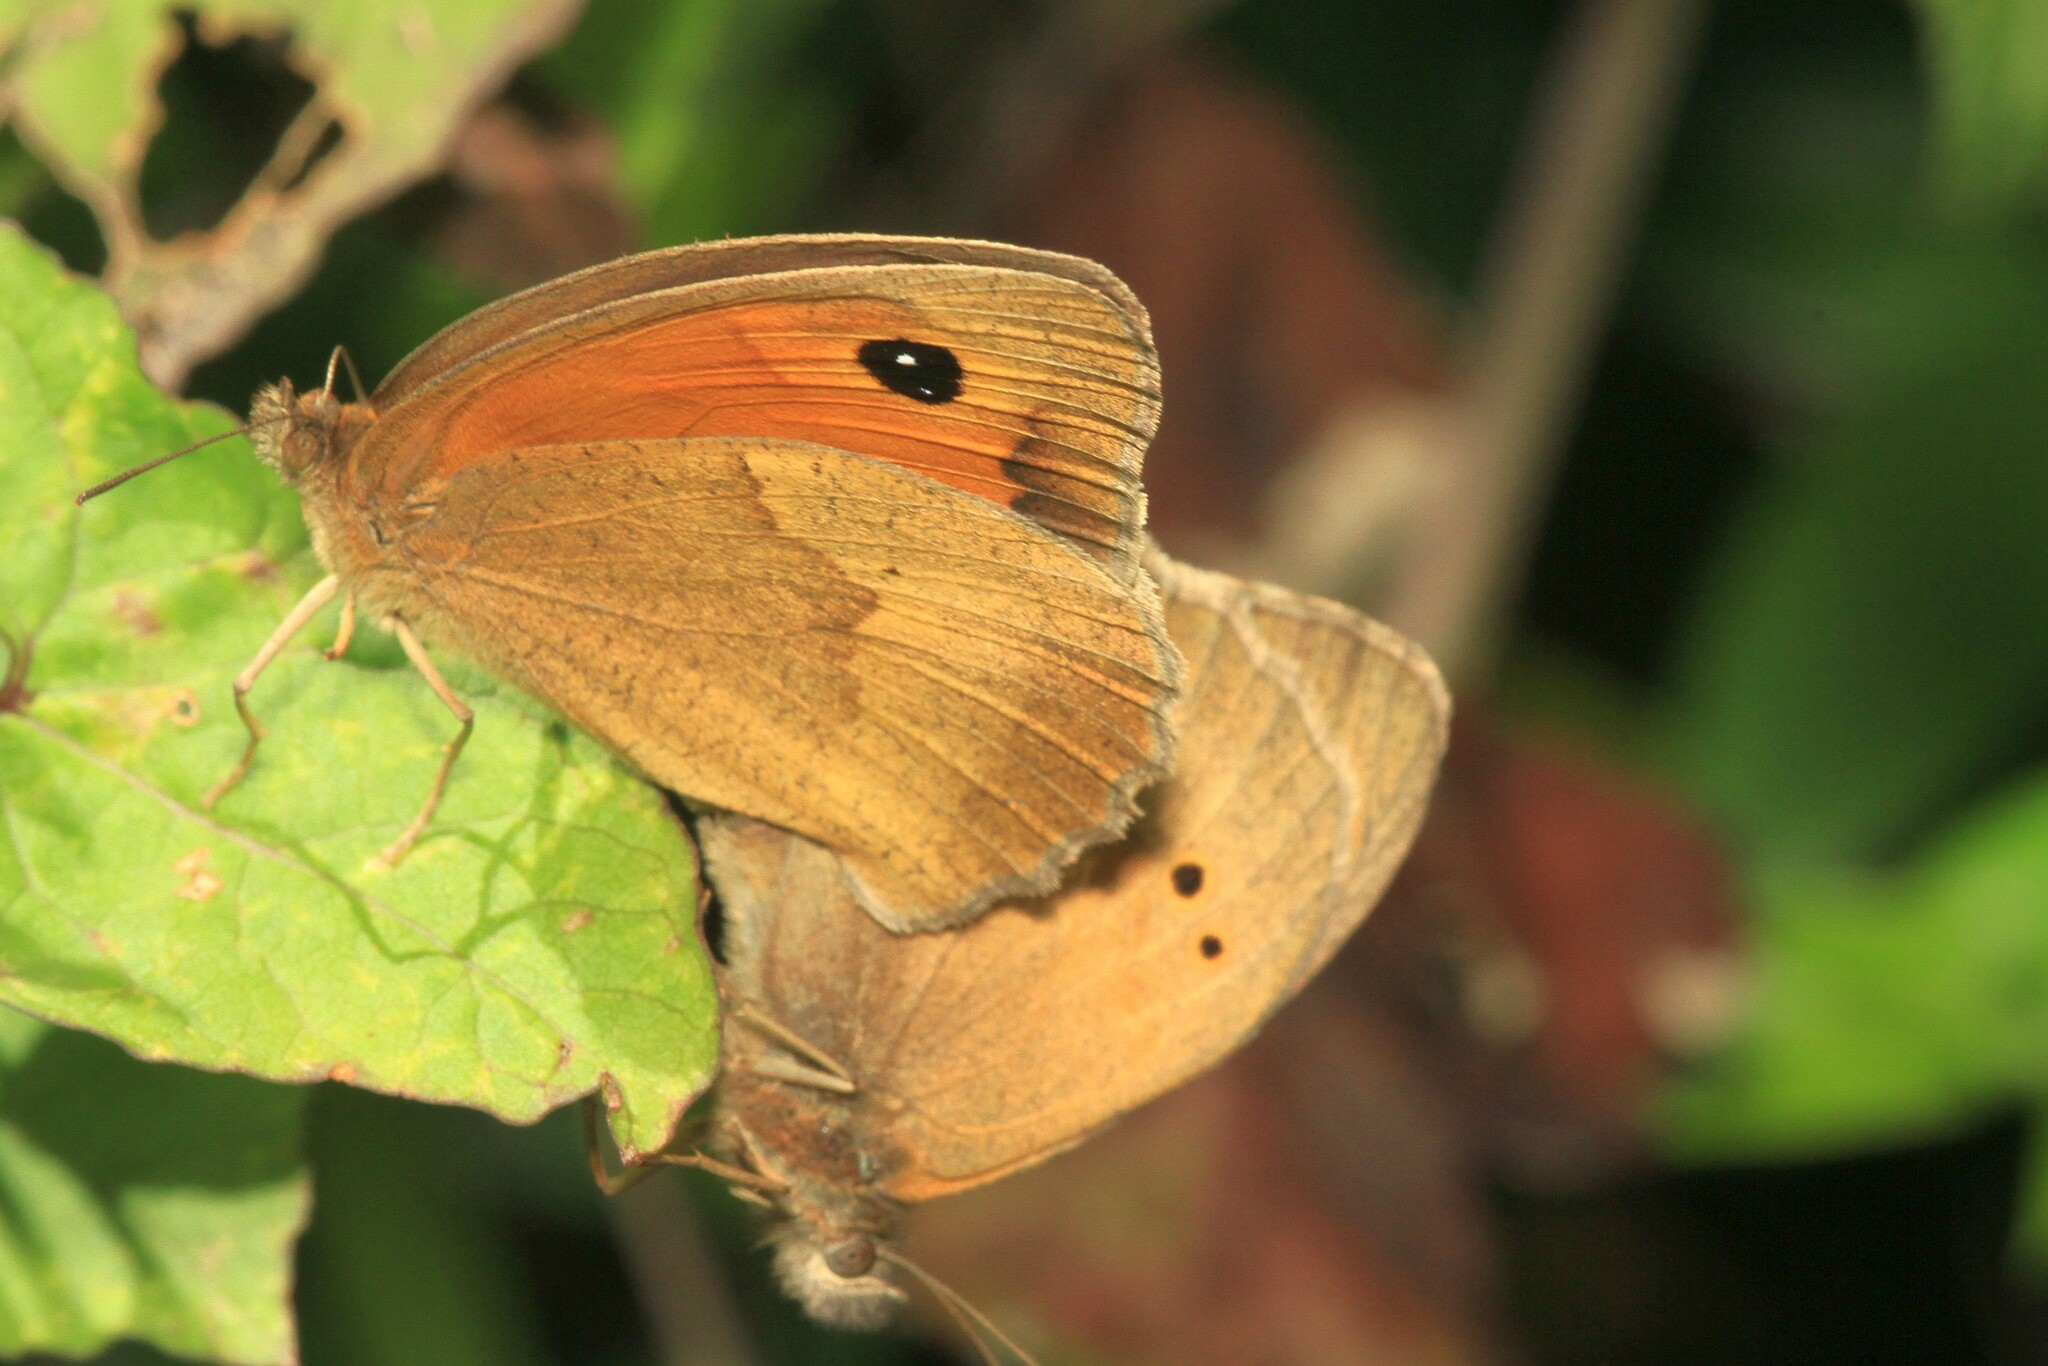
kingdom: Animalia
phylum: Arthropoda
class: Insecta
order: Lepidoptera
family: Nymphalidae
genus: Maniola
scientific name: Maniola jurtina
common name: Meadow brown
